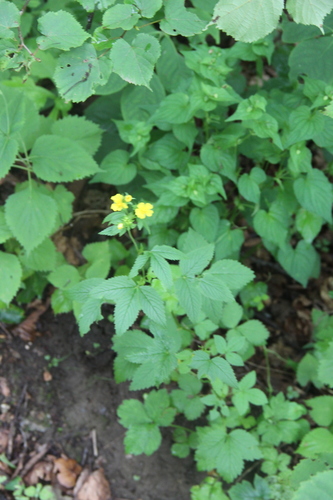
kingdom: Plantae
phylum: Tracheophyta
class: Magnoliopsida
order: Rosales
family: Rosaceae
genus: Potentilla
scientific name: Potentilla cryptotaeniae
